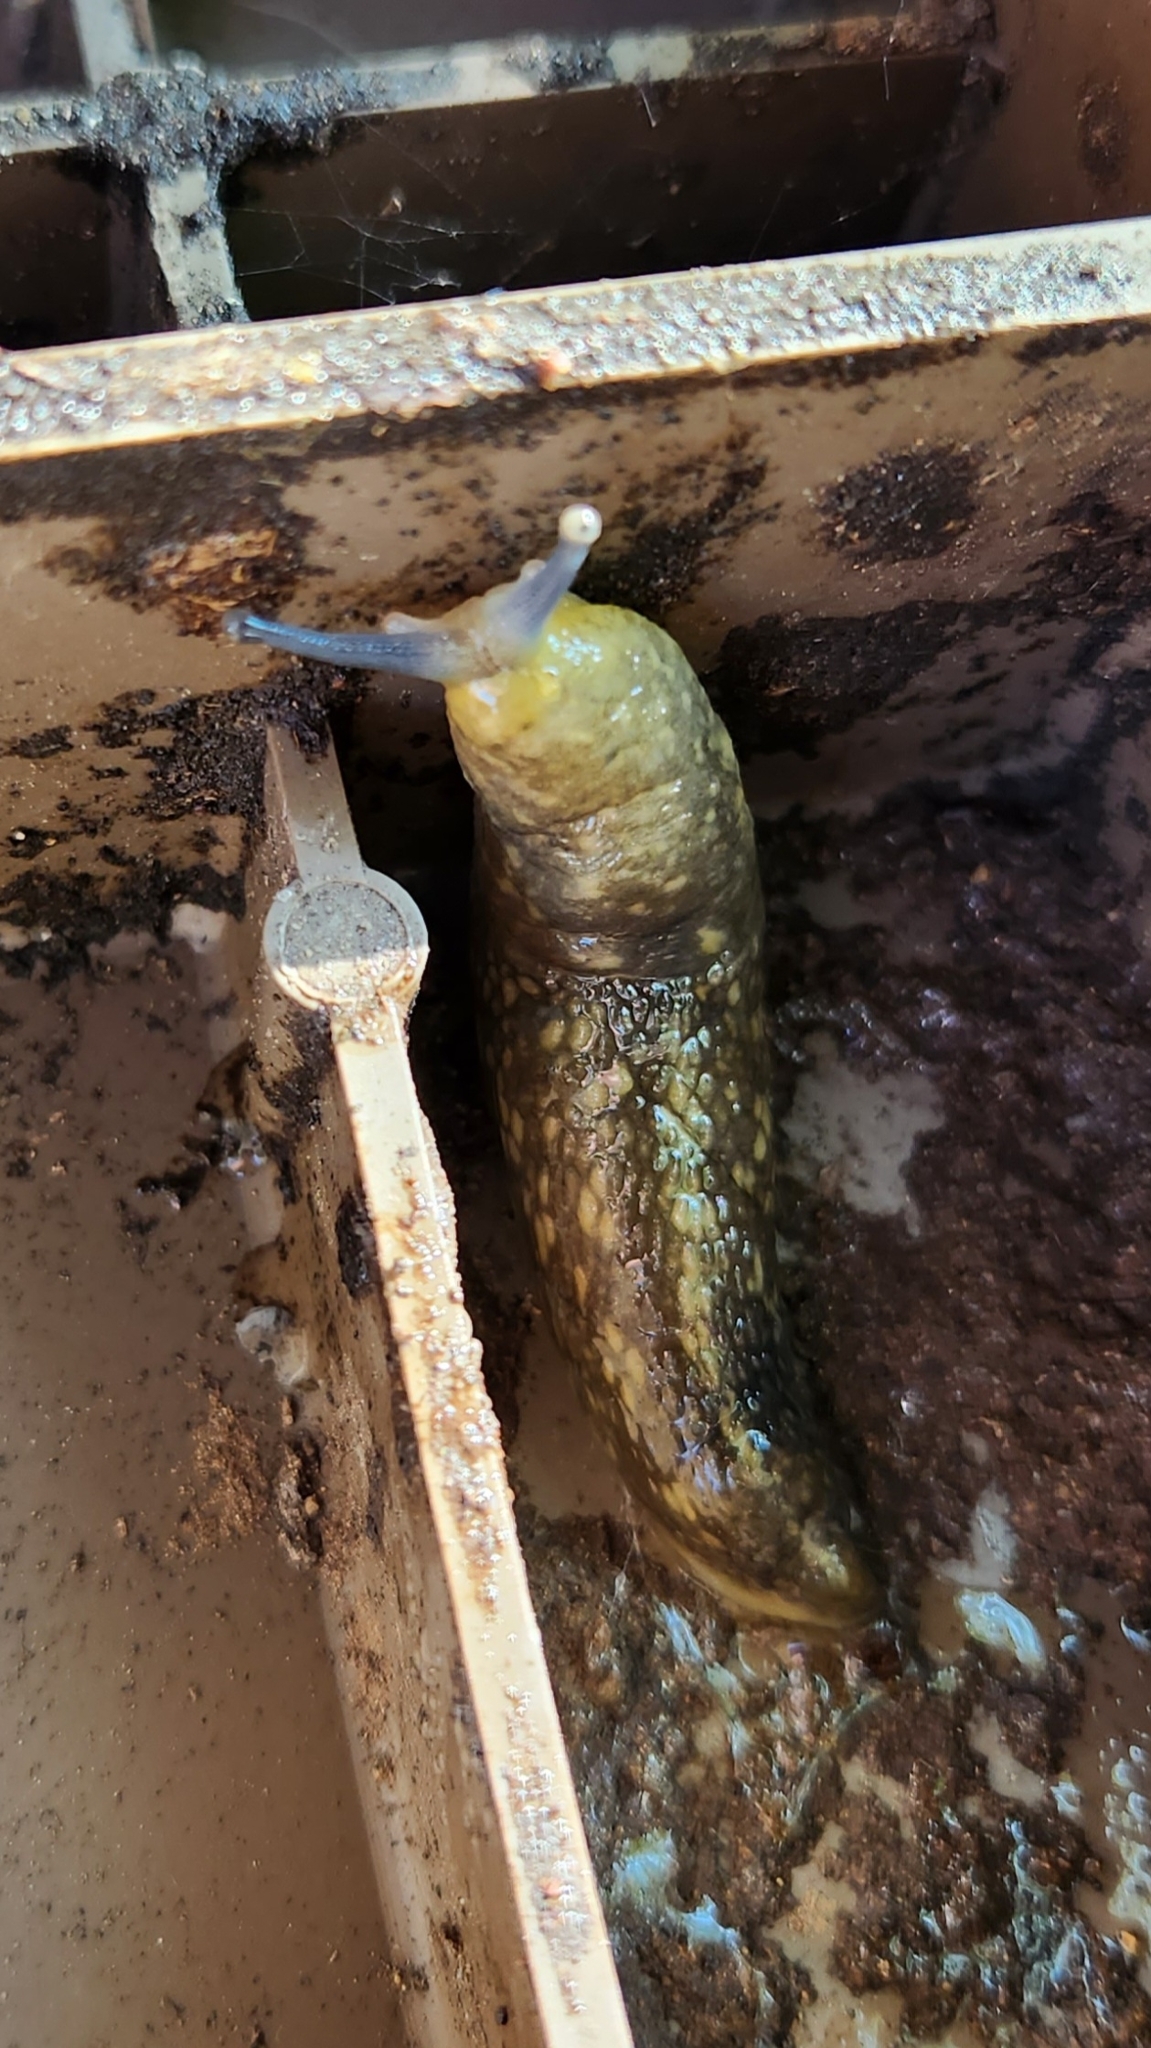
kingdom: Animalia
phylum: Mollusca
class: Gastropoda
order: Stylommatophora
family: Limacidae
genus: Limacus
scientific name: Limacus flavus
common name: Yellow gardenslug
